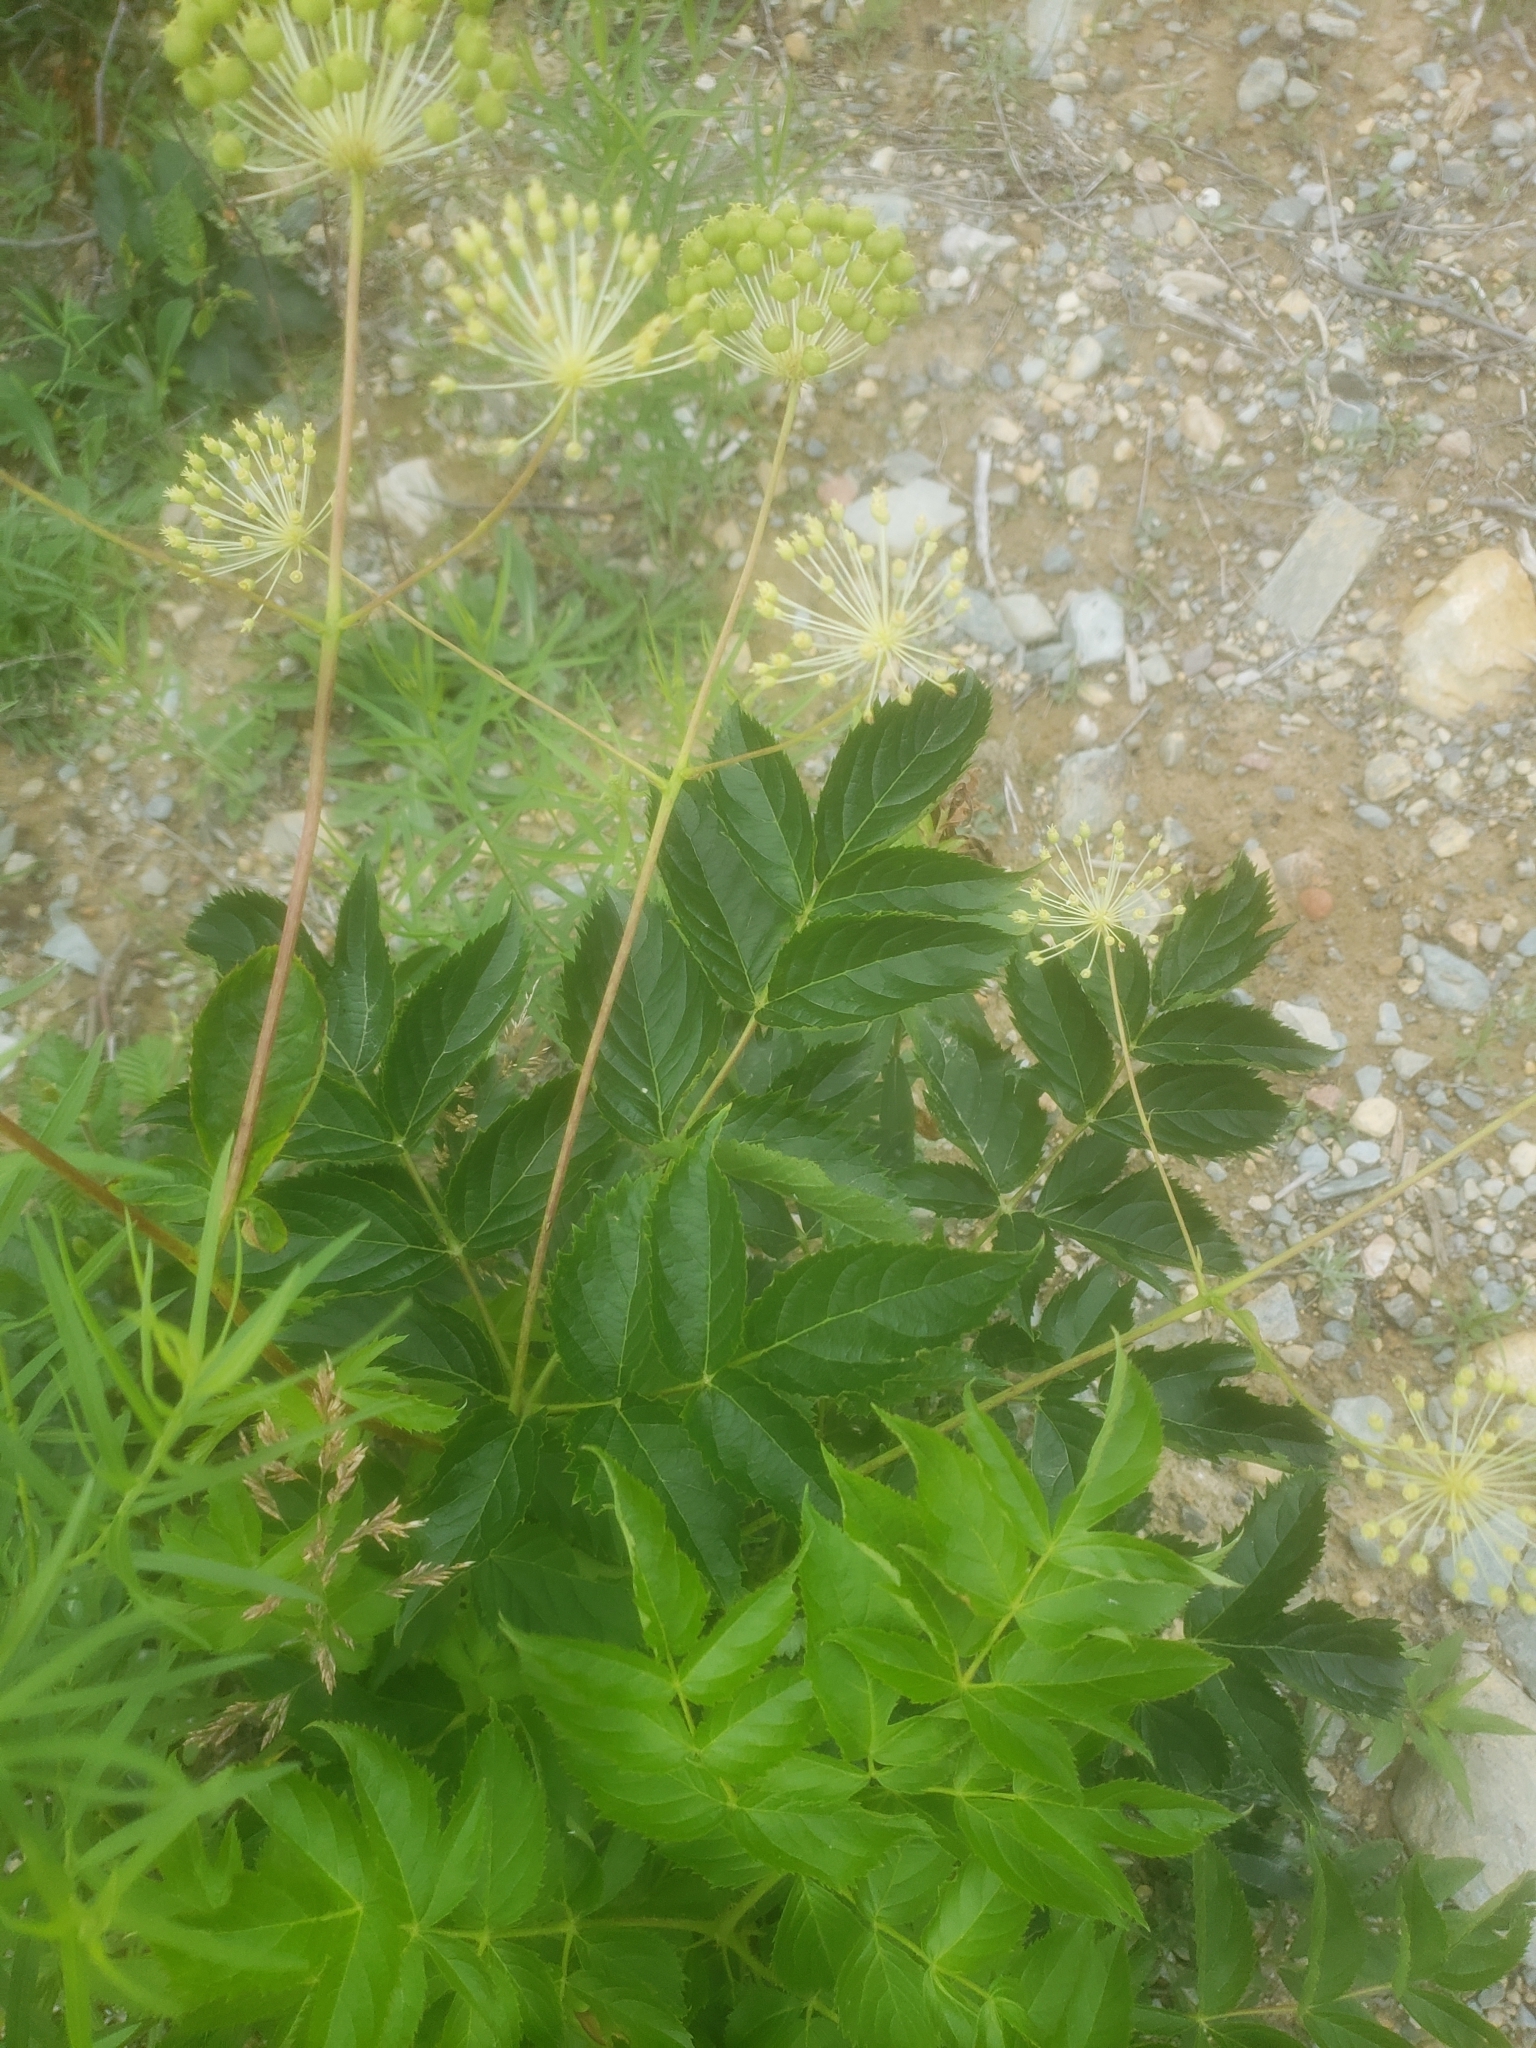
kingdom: Plantae
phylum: Tracheophyta
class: Magnoliopsida
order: Apiales
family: Araliaceae
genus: Aralia
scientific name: Aralia hispida
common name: Bristly sarsaparilla
